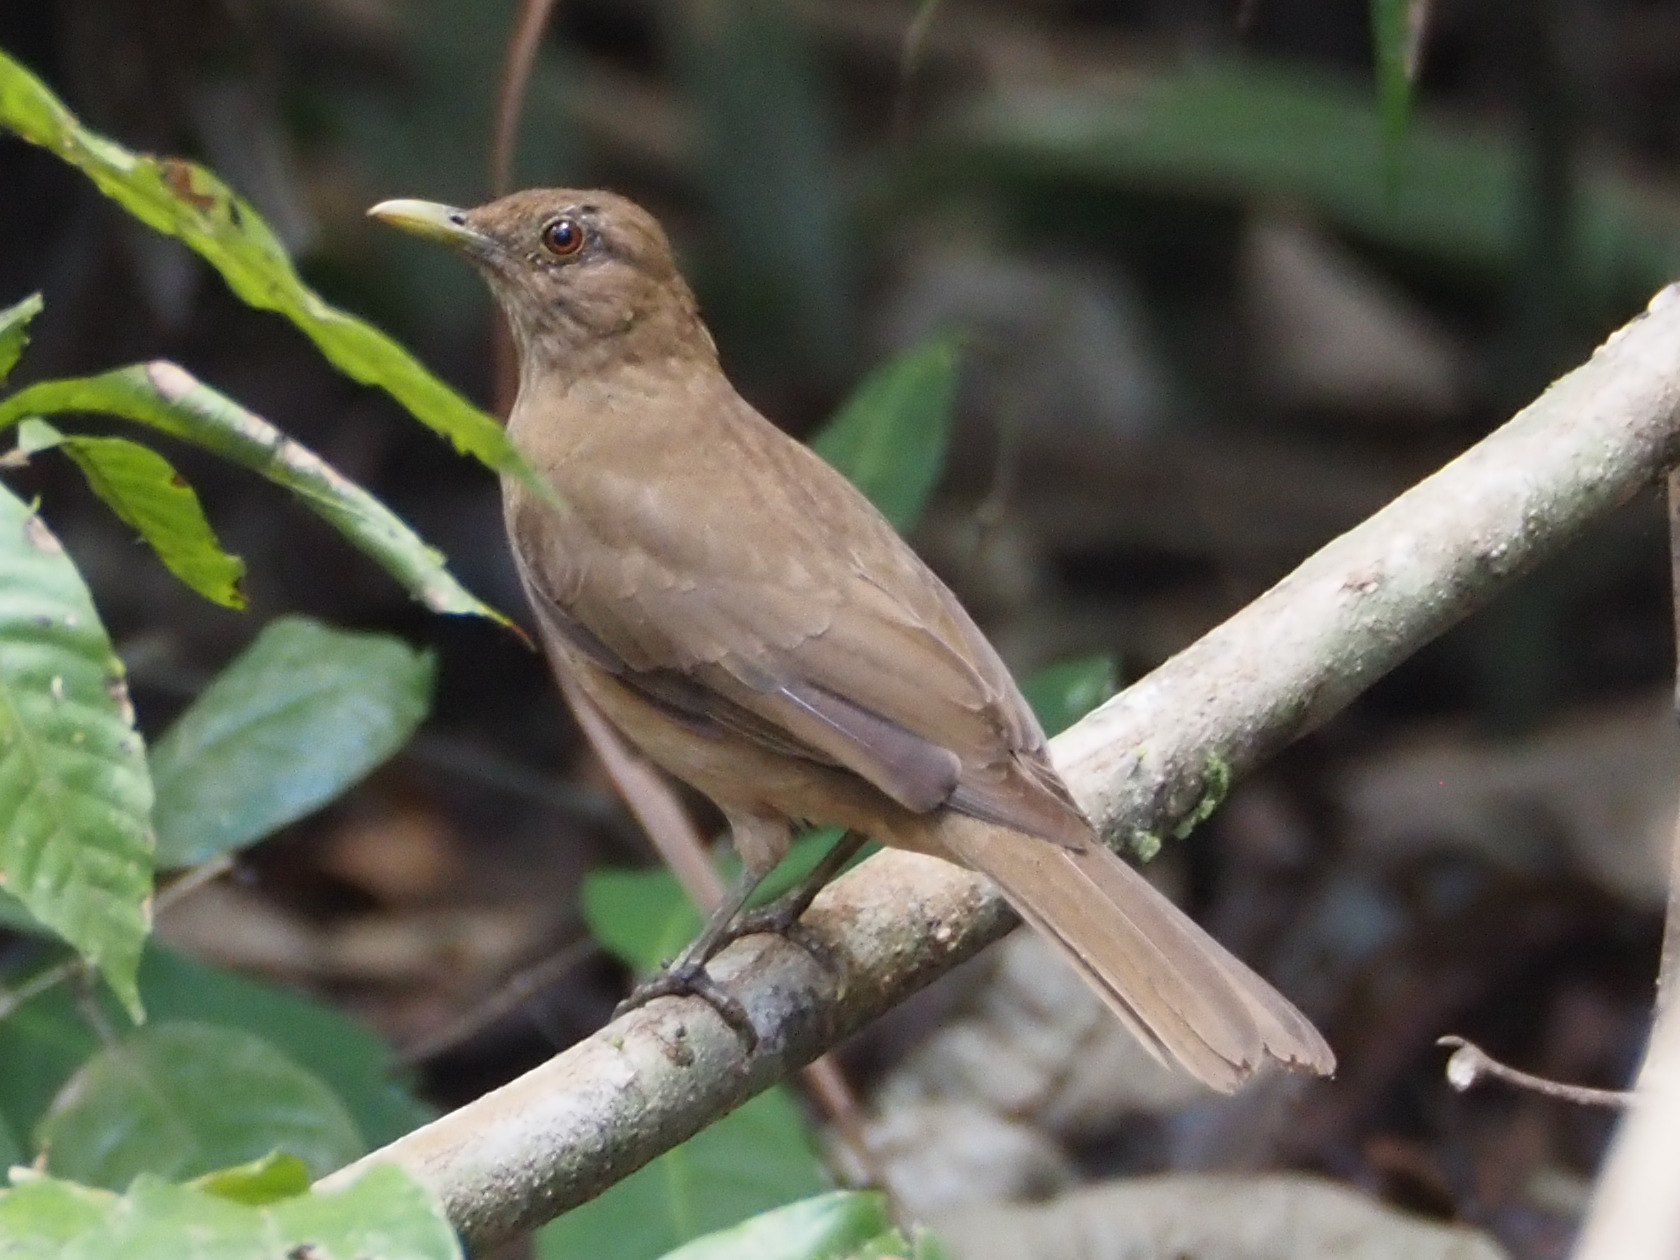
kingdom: Animalia
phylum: Chordata
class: Aves
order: Passeriformes
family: Turdidae
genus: Turdus
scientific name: Turdus grayi
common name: Clay-colored thrush
